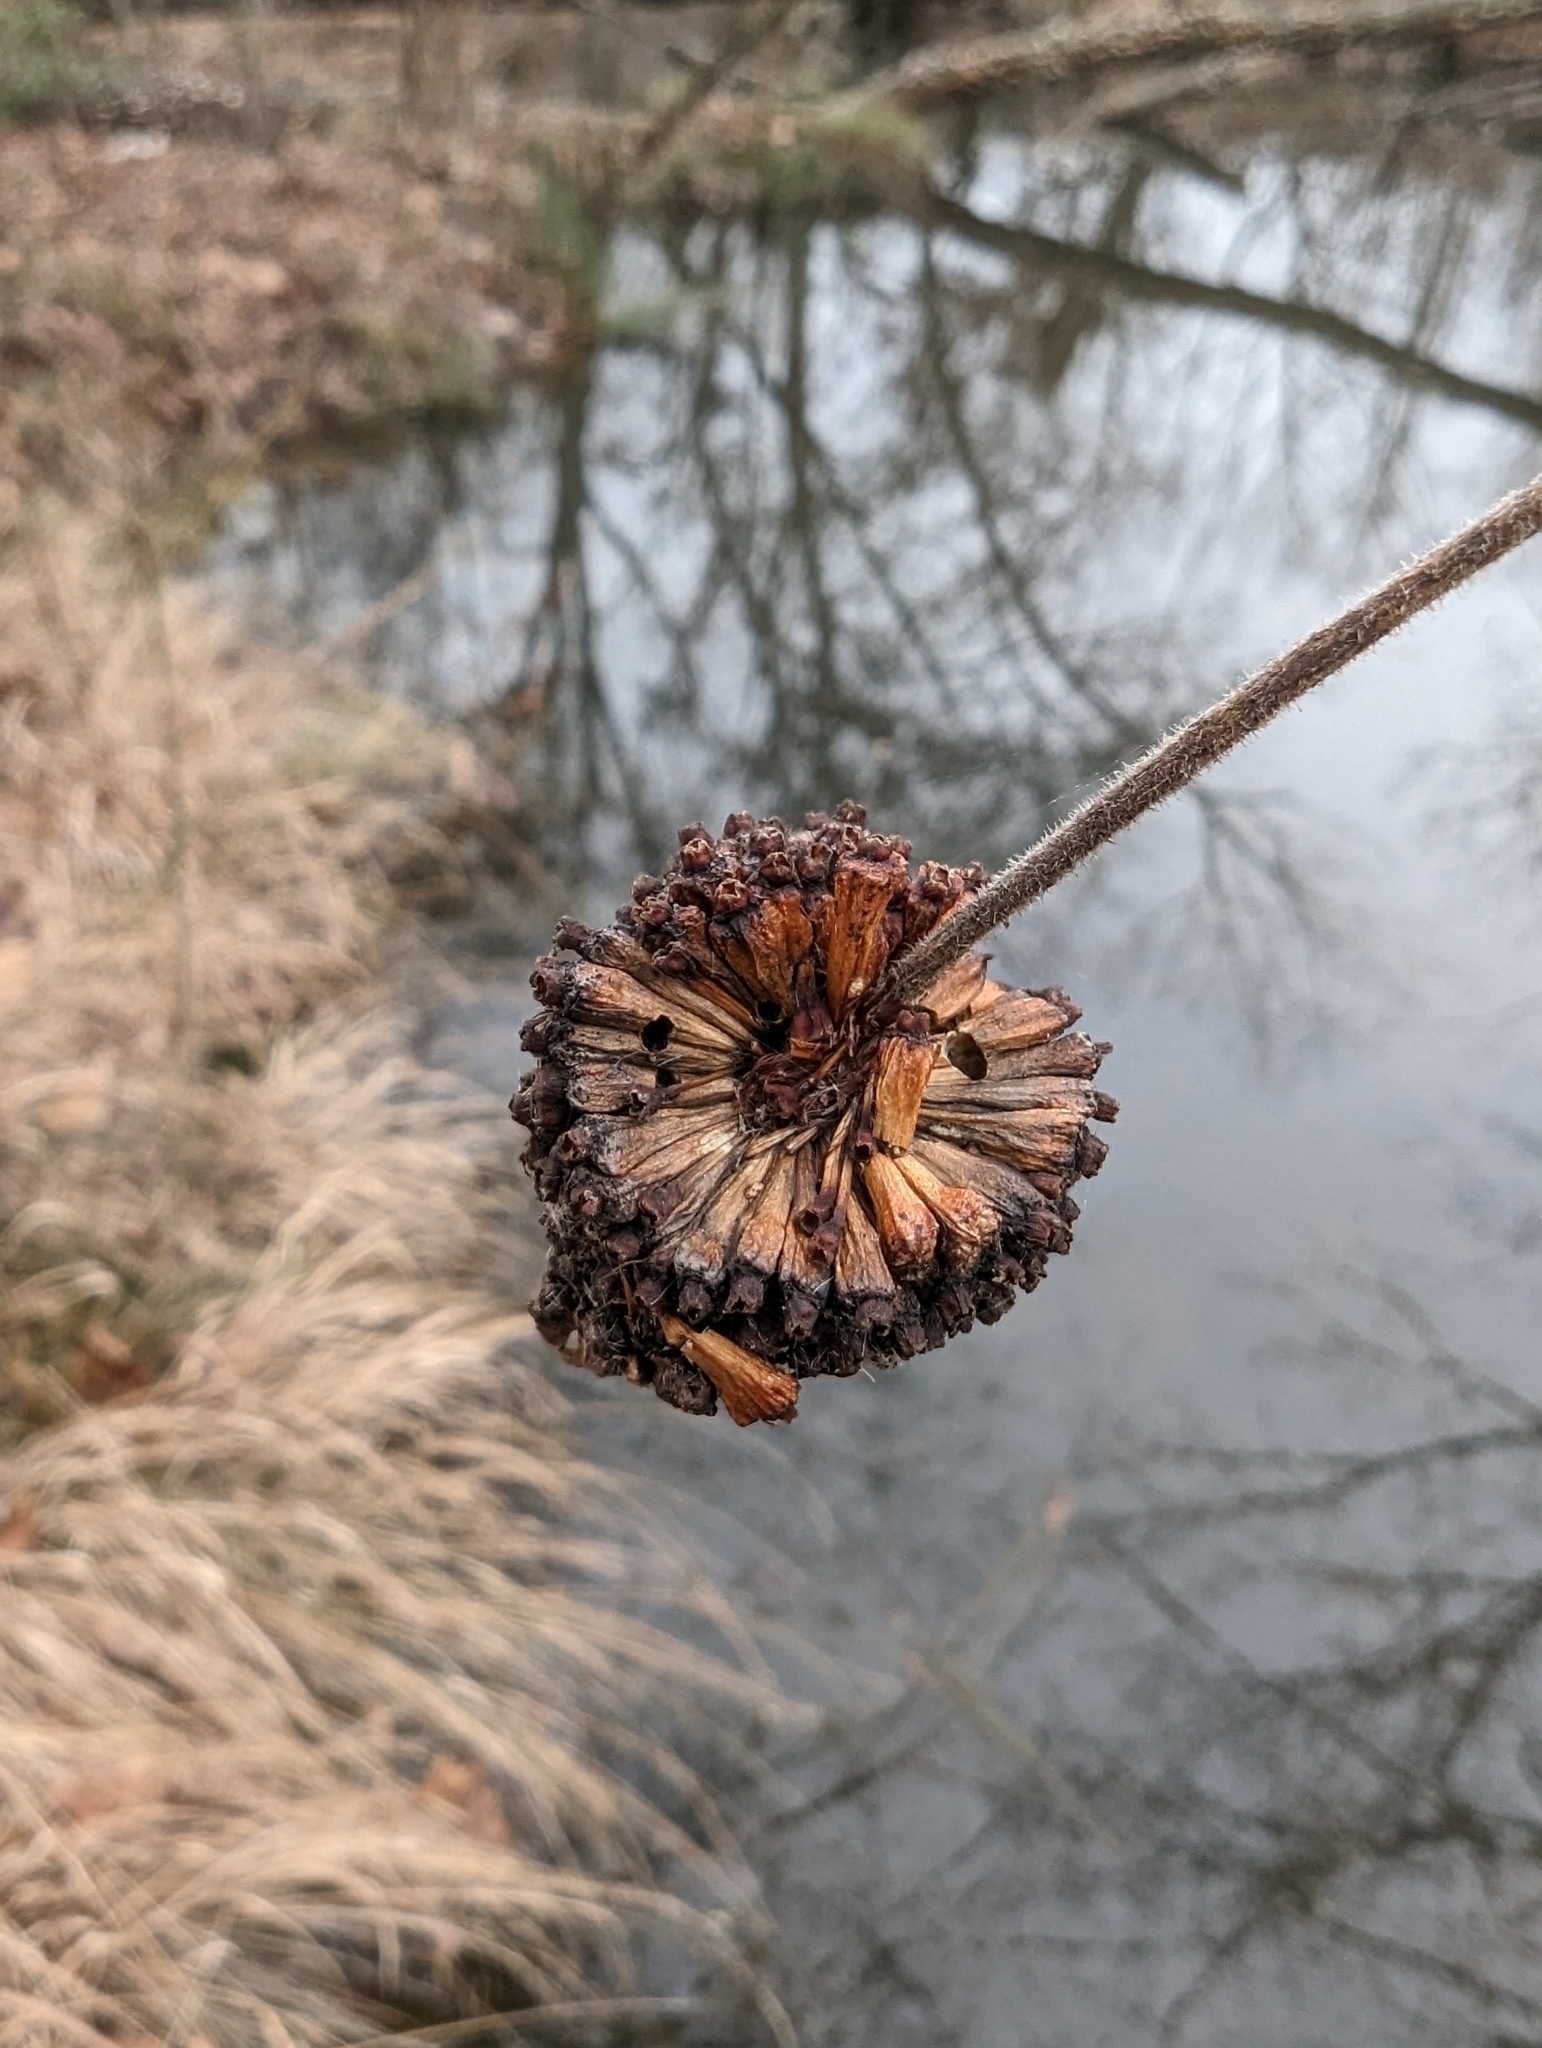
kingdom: Plantae
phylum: Tracheophyta
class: Magnoliopsida
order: Gentianales
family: Rubiaceae
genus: Cephalanthus
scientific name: Cephalanthus occidentalis
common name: Button-willow
